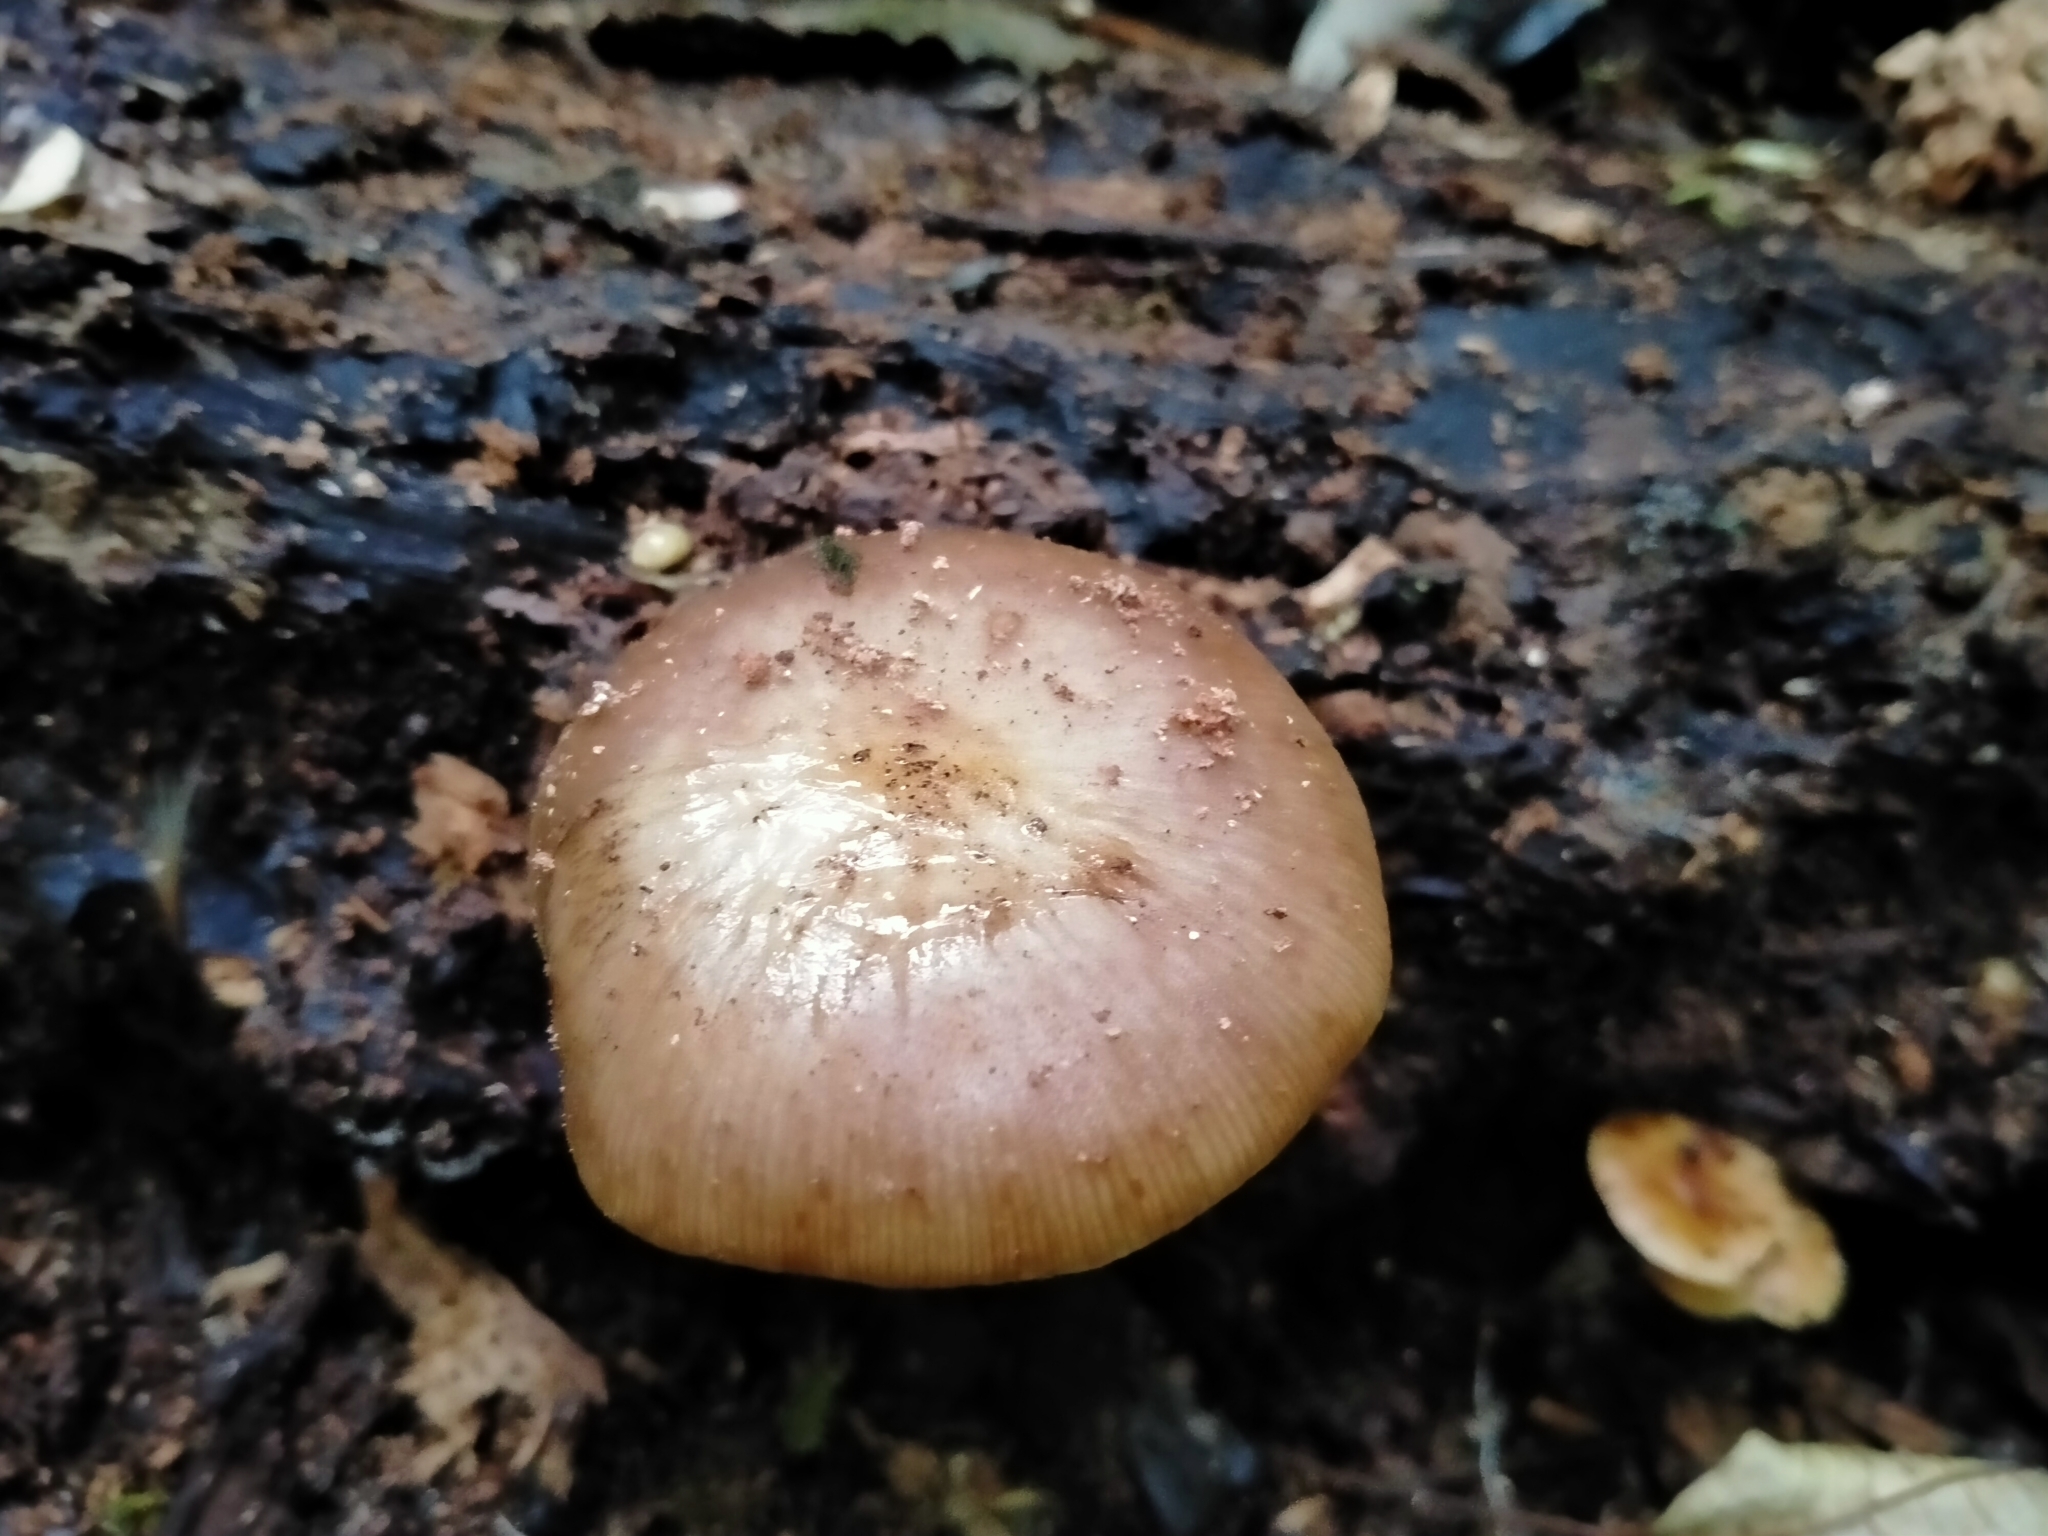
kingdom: Fungi
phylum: Basidiomycota
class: Agaricomycetes
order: Agaricales
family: Physalacriaceae
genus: Armillaria
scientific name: Armillaria novae-zelandiae
